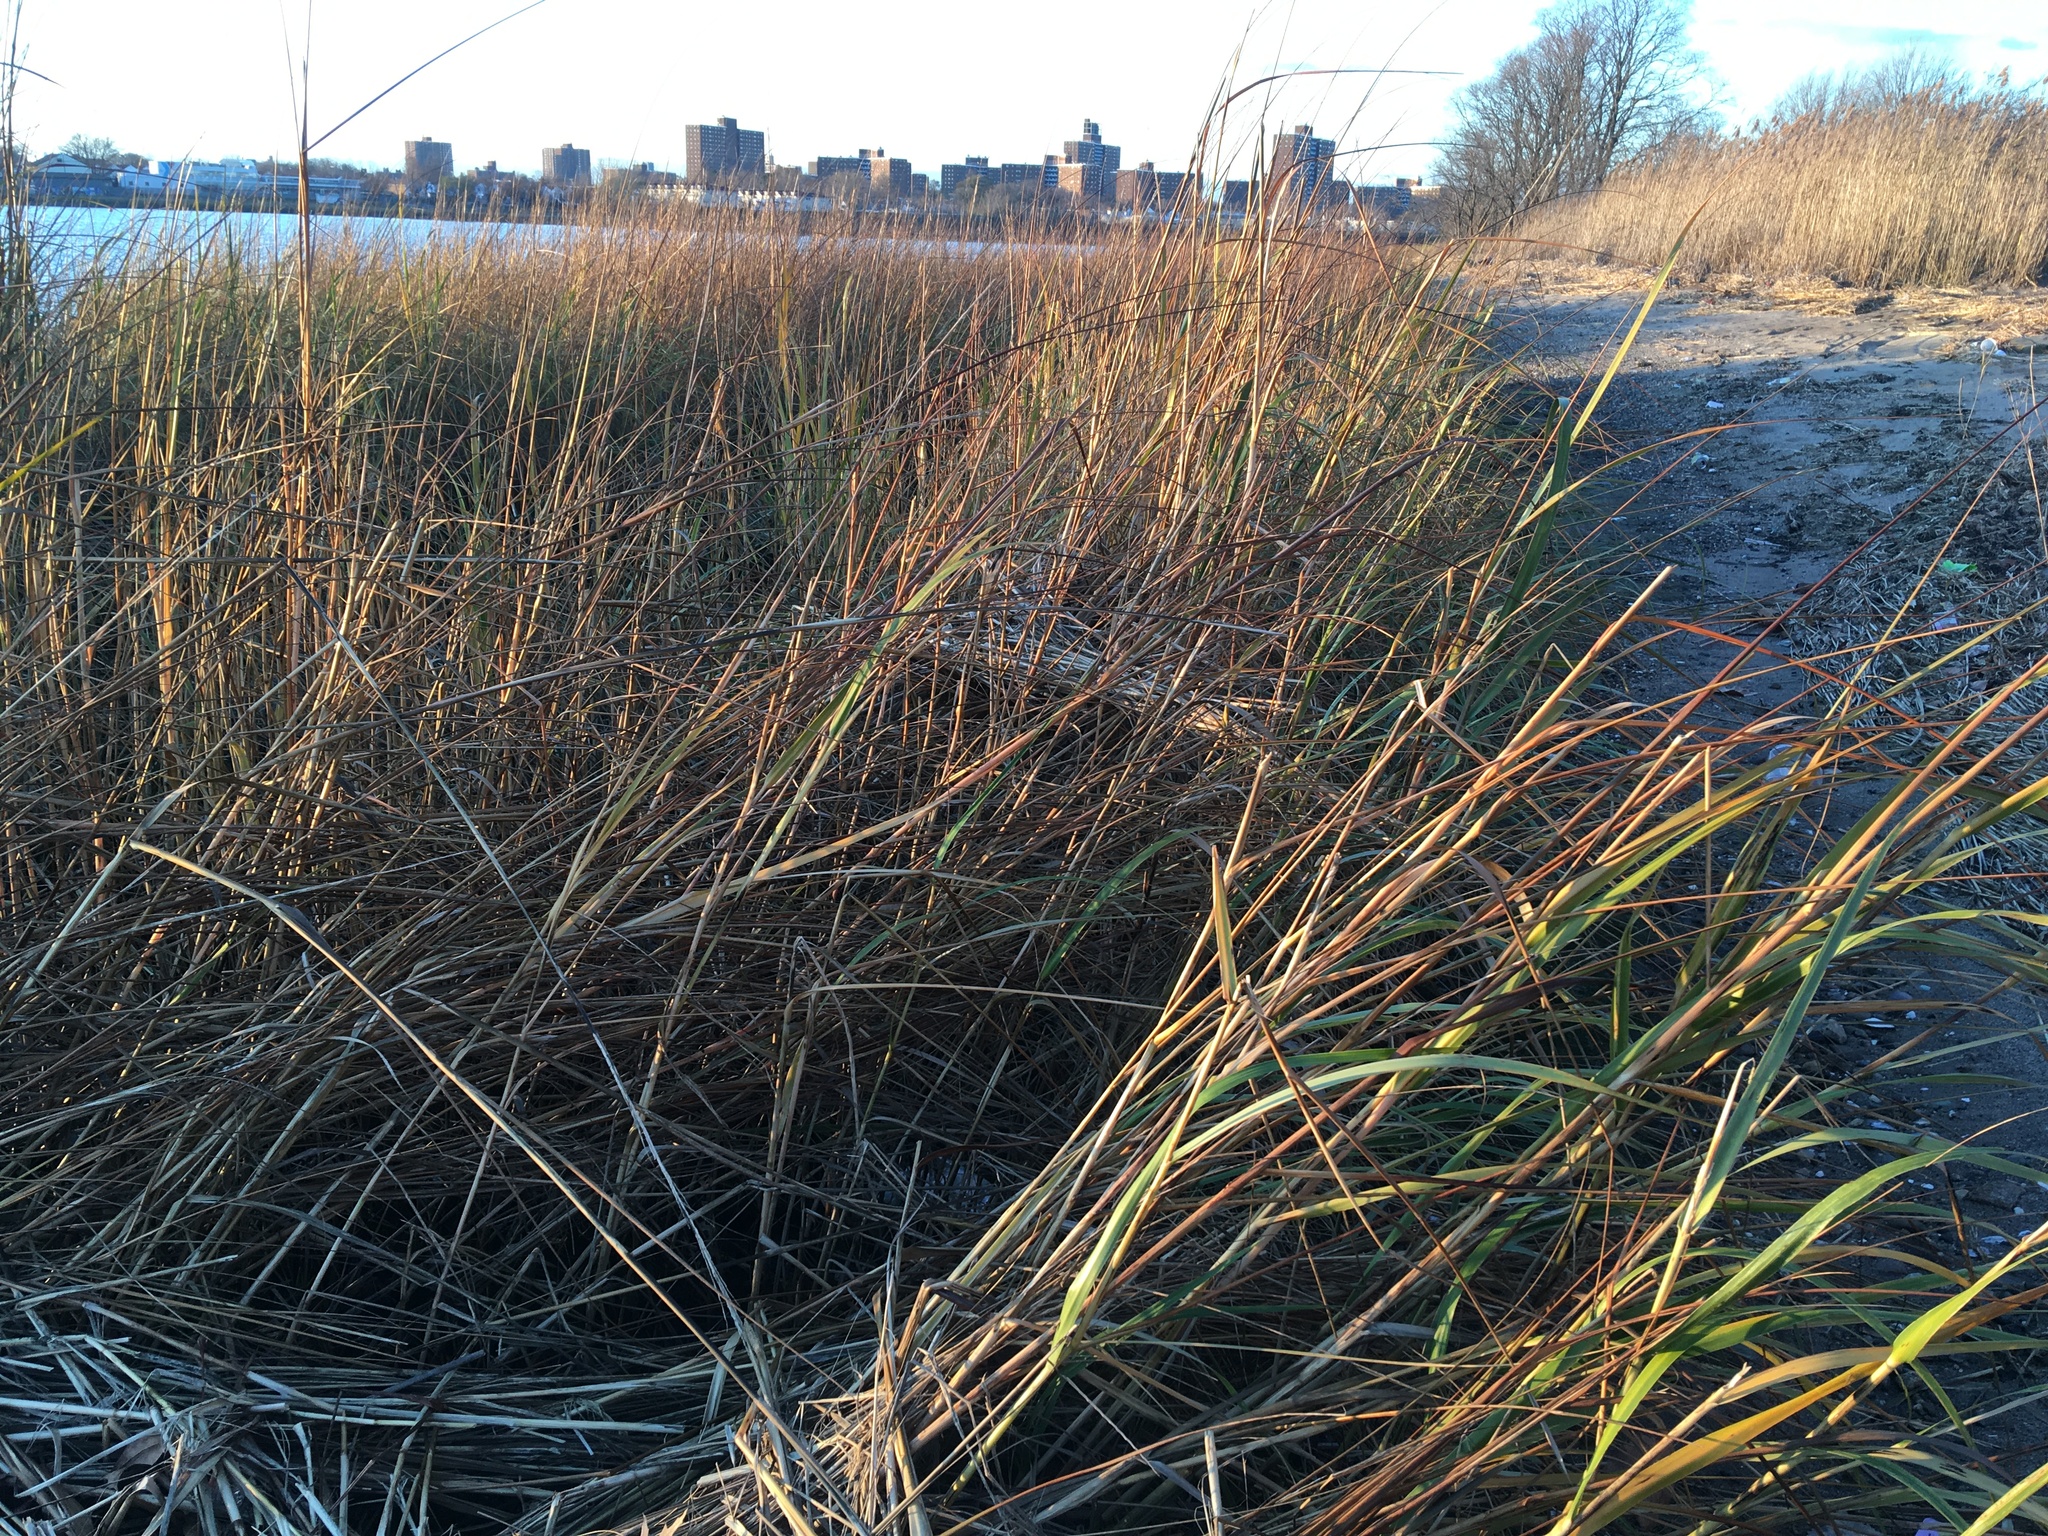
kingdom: Plantae
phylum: Tracheophyta
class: Liliopsida
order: Poales
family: Poaceae
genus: Sporobolus
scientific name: Sporobolus alterniflorus
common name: Atlantic cordgrass
